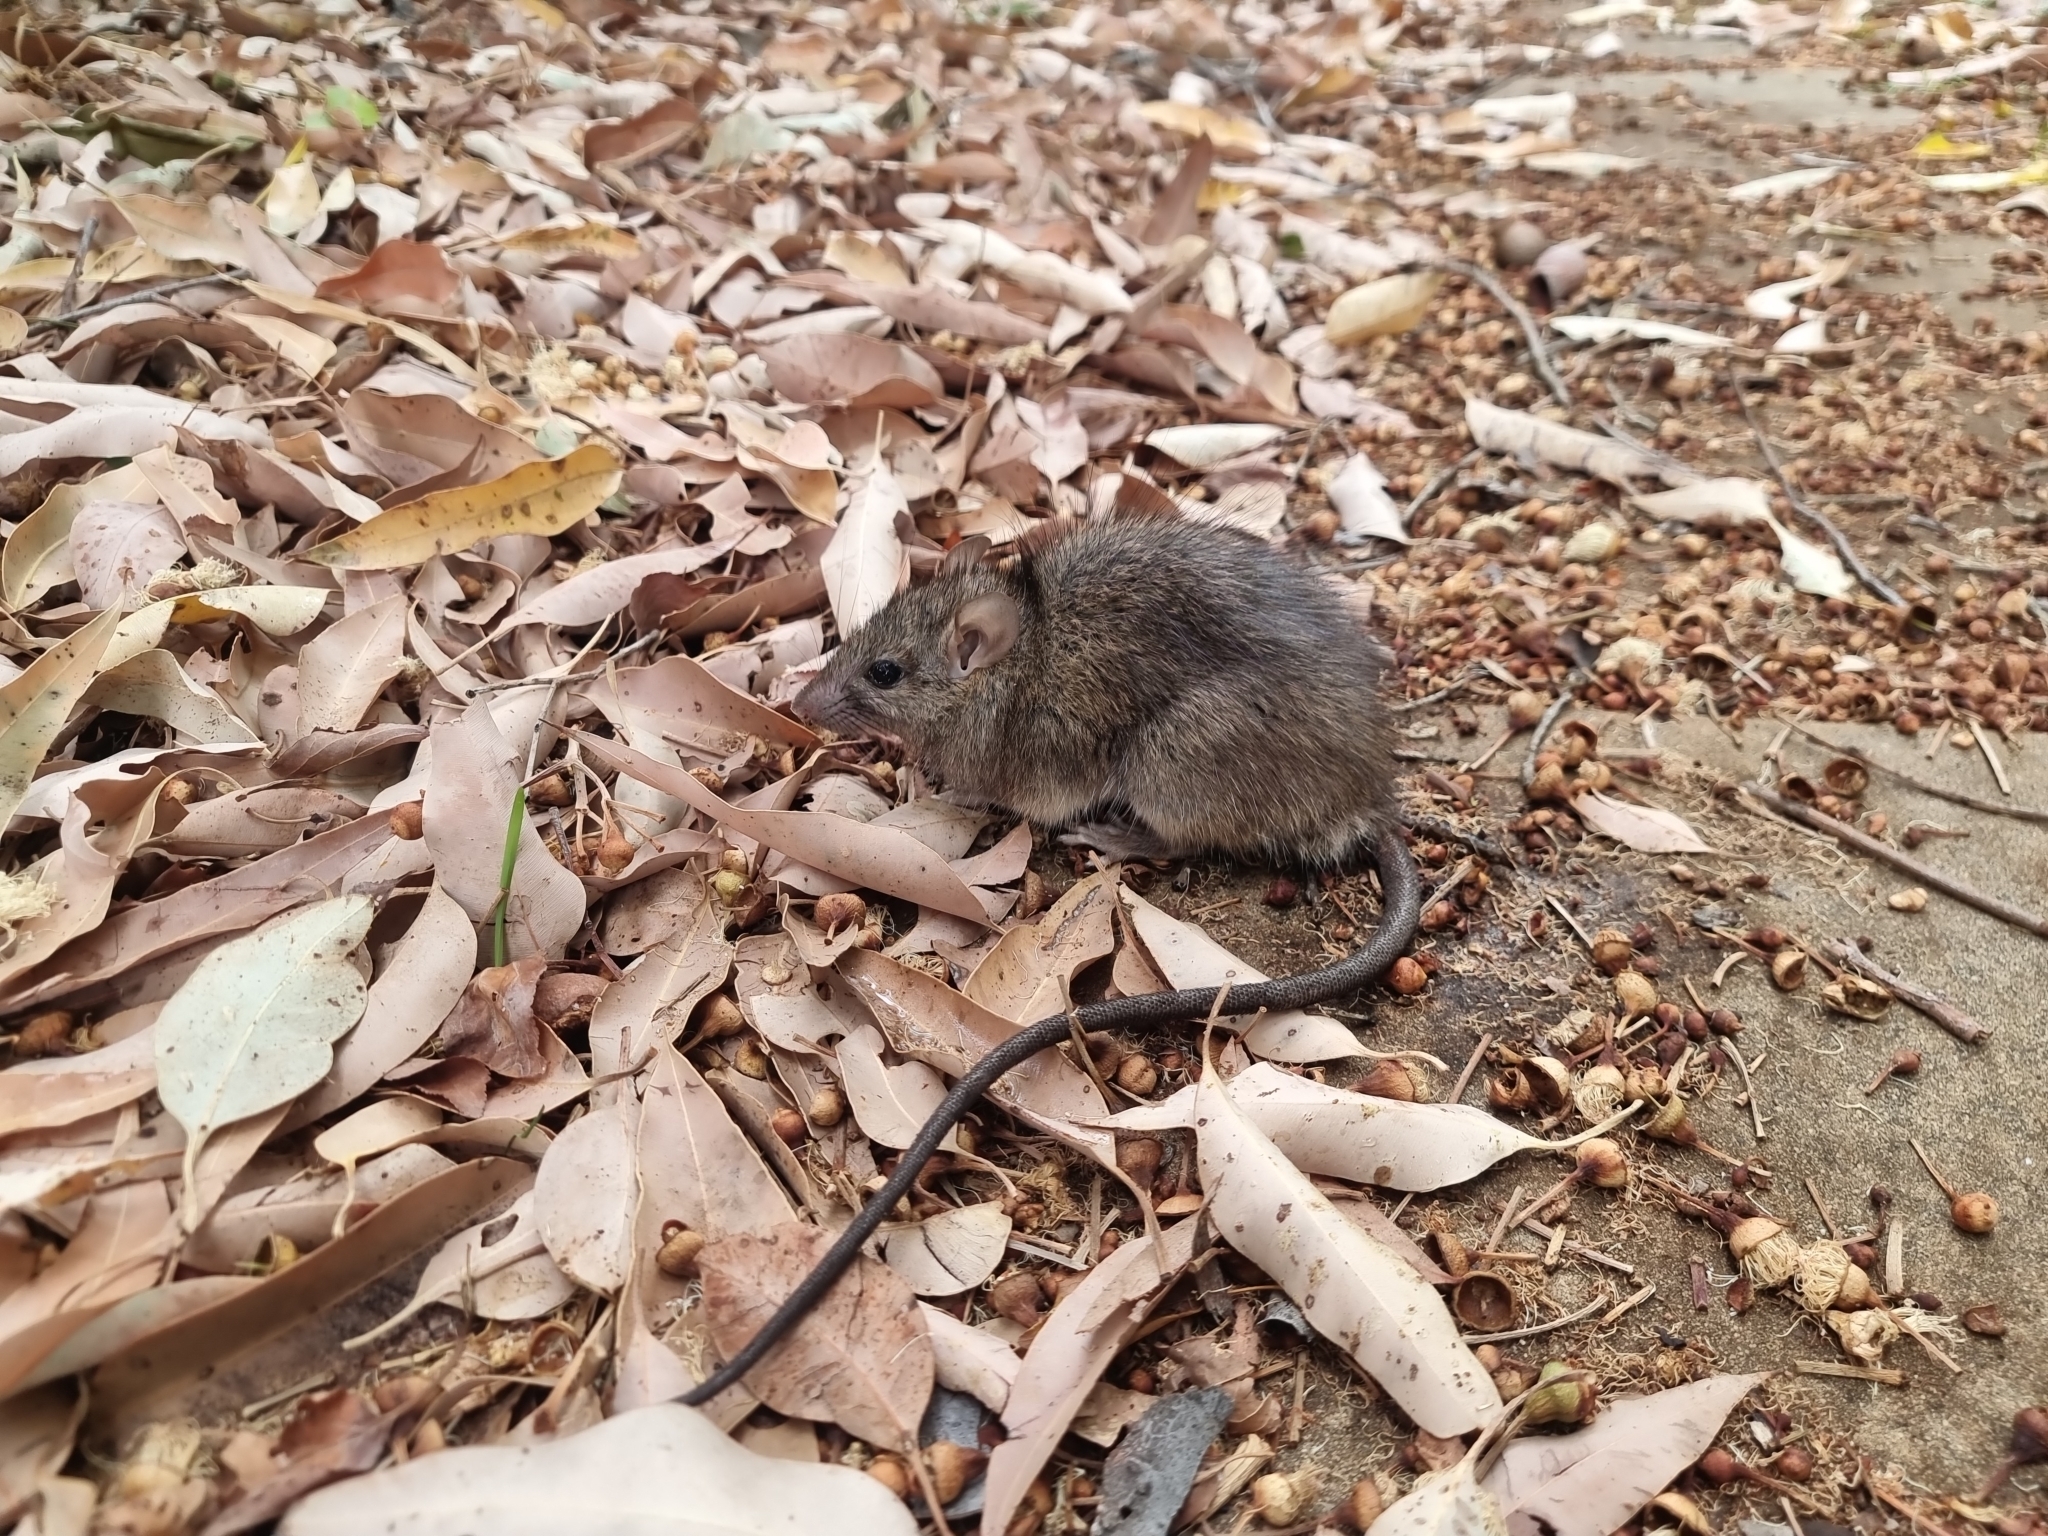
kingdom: Animalia
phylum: Chordata
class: Mammalia
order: Rodentia
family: Muridae
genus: Rattus
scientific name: Rattus rattus
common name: Black rat
